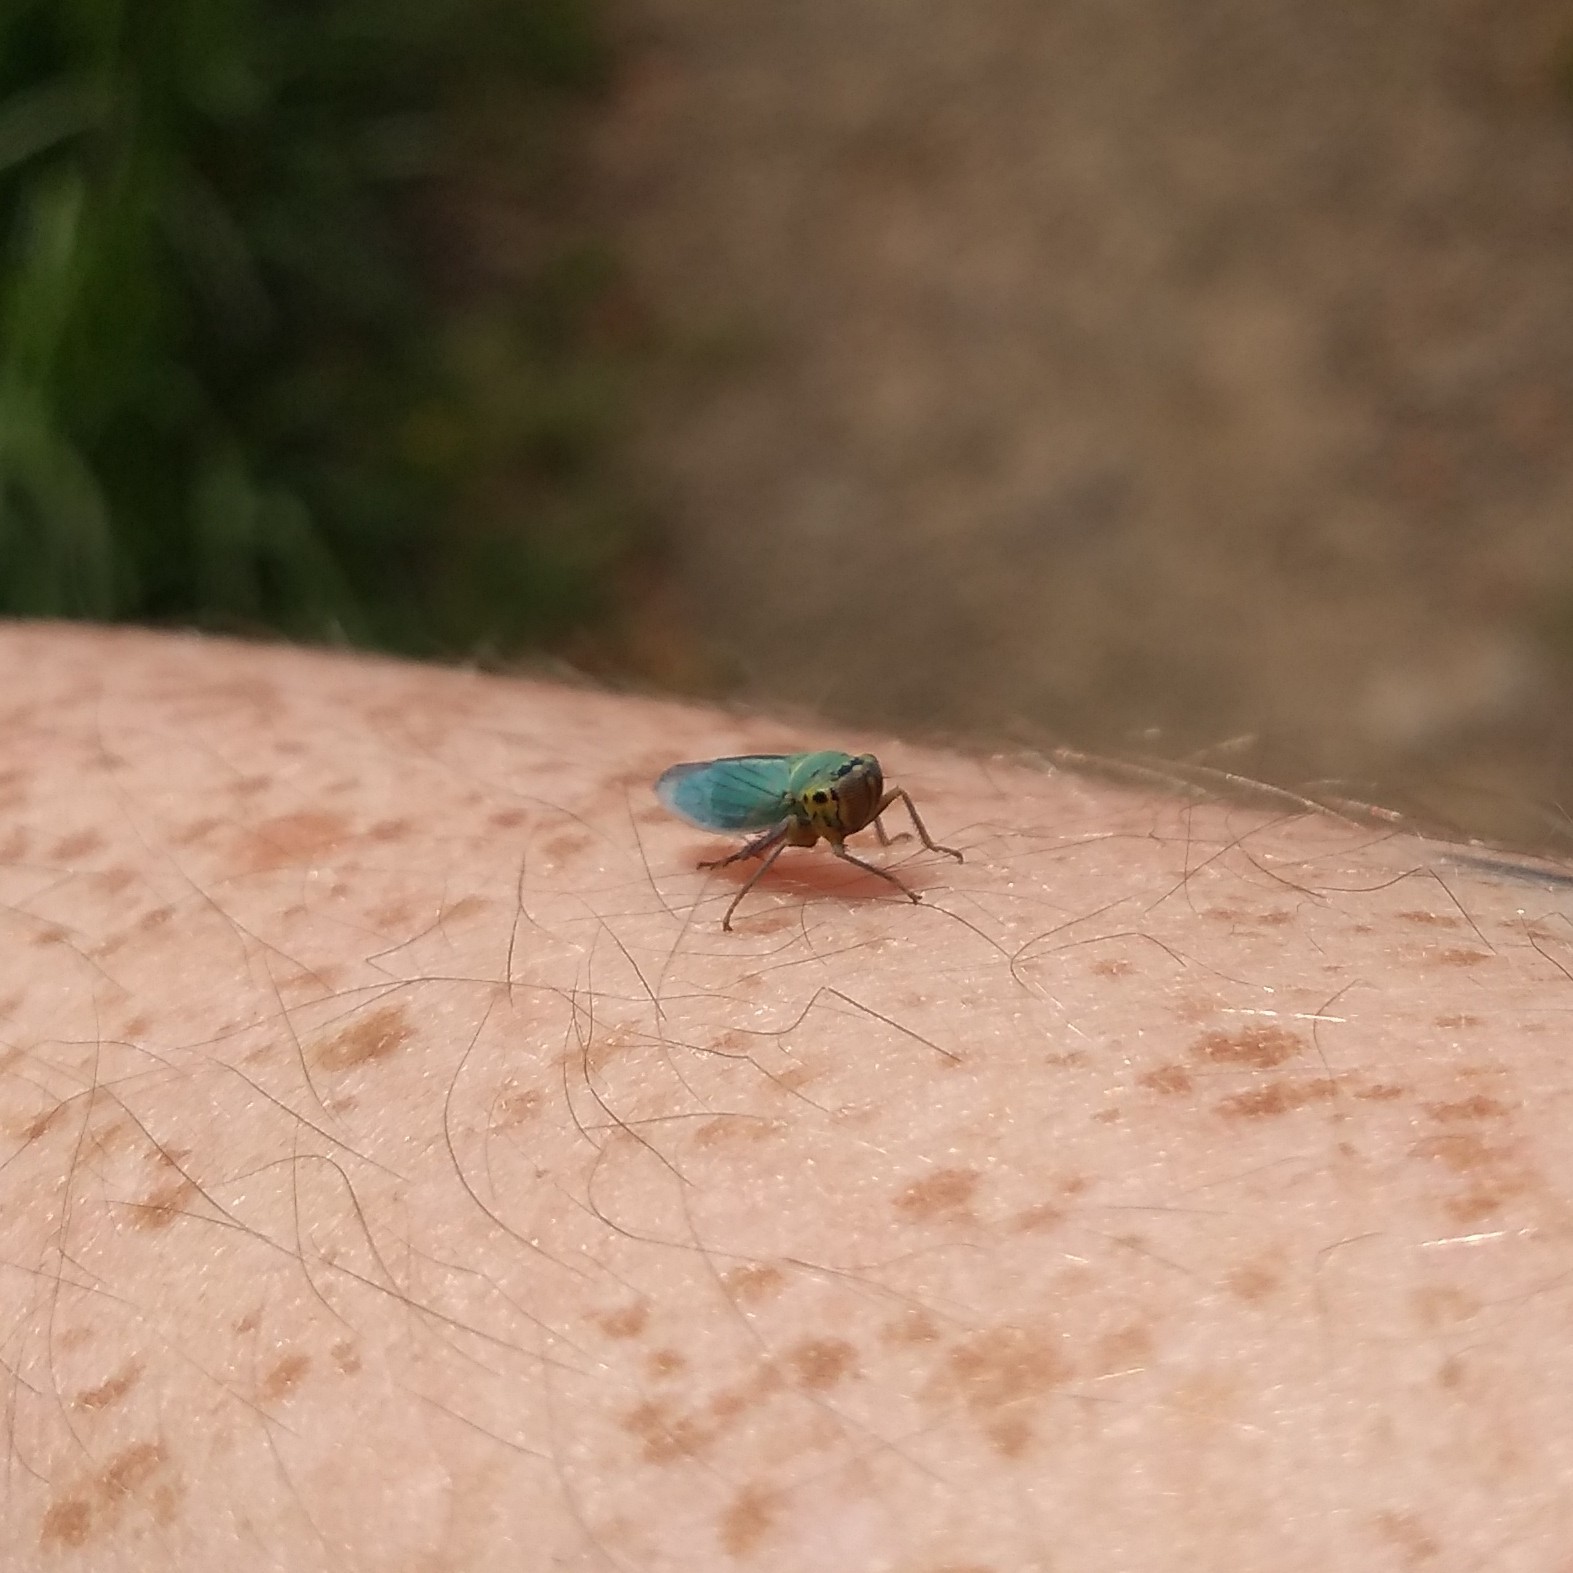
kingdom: Animalia
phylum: Arthropoda
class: Insecta
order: Hemiptera
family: Cicadellidae
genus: Cicadella
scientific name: Cicadella viridis
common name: Leafhopper
